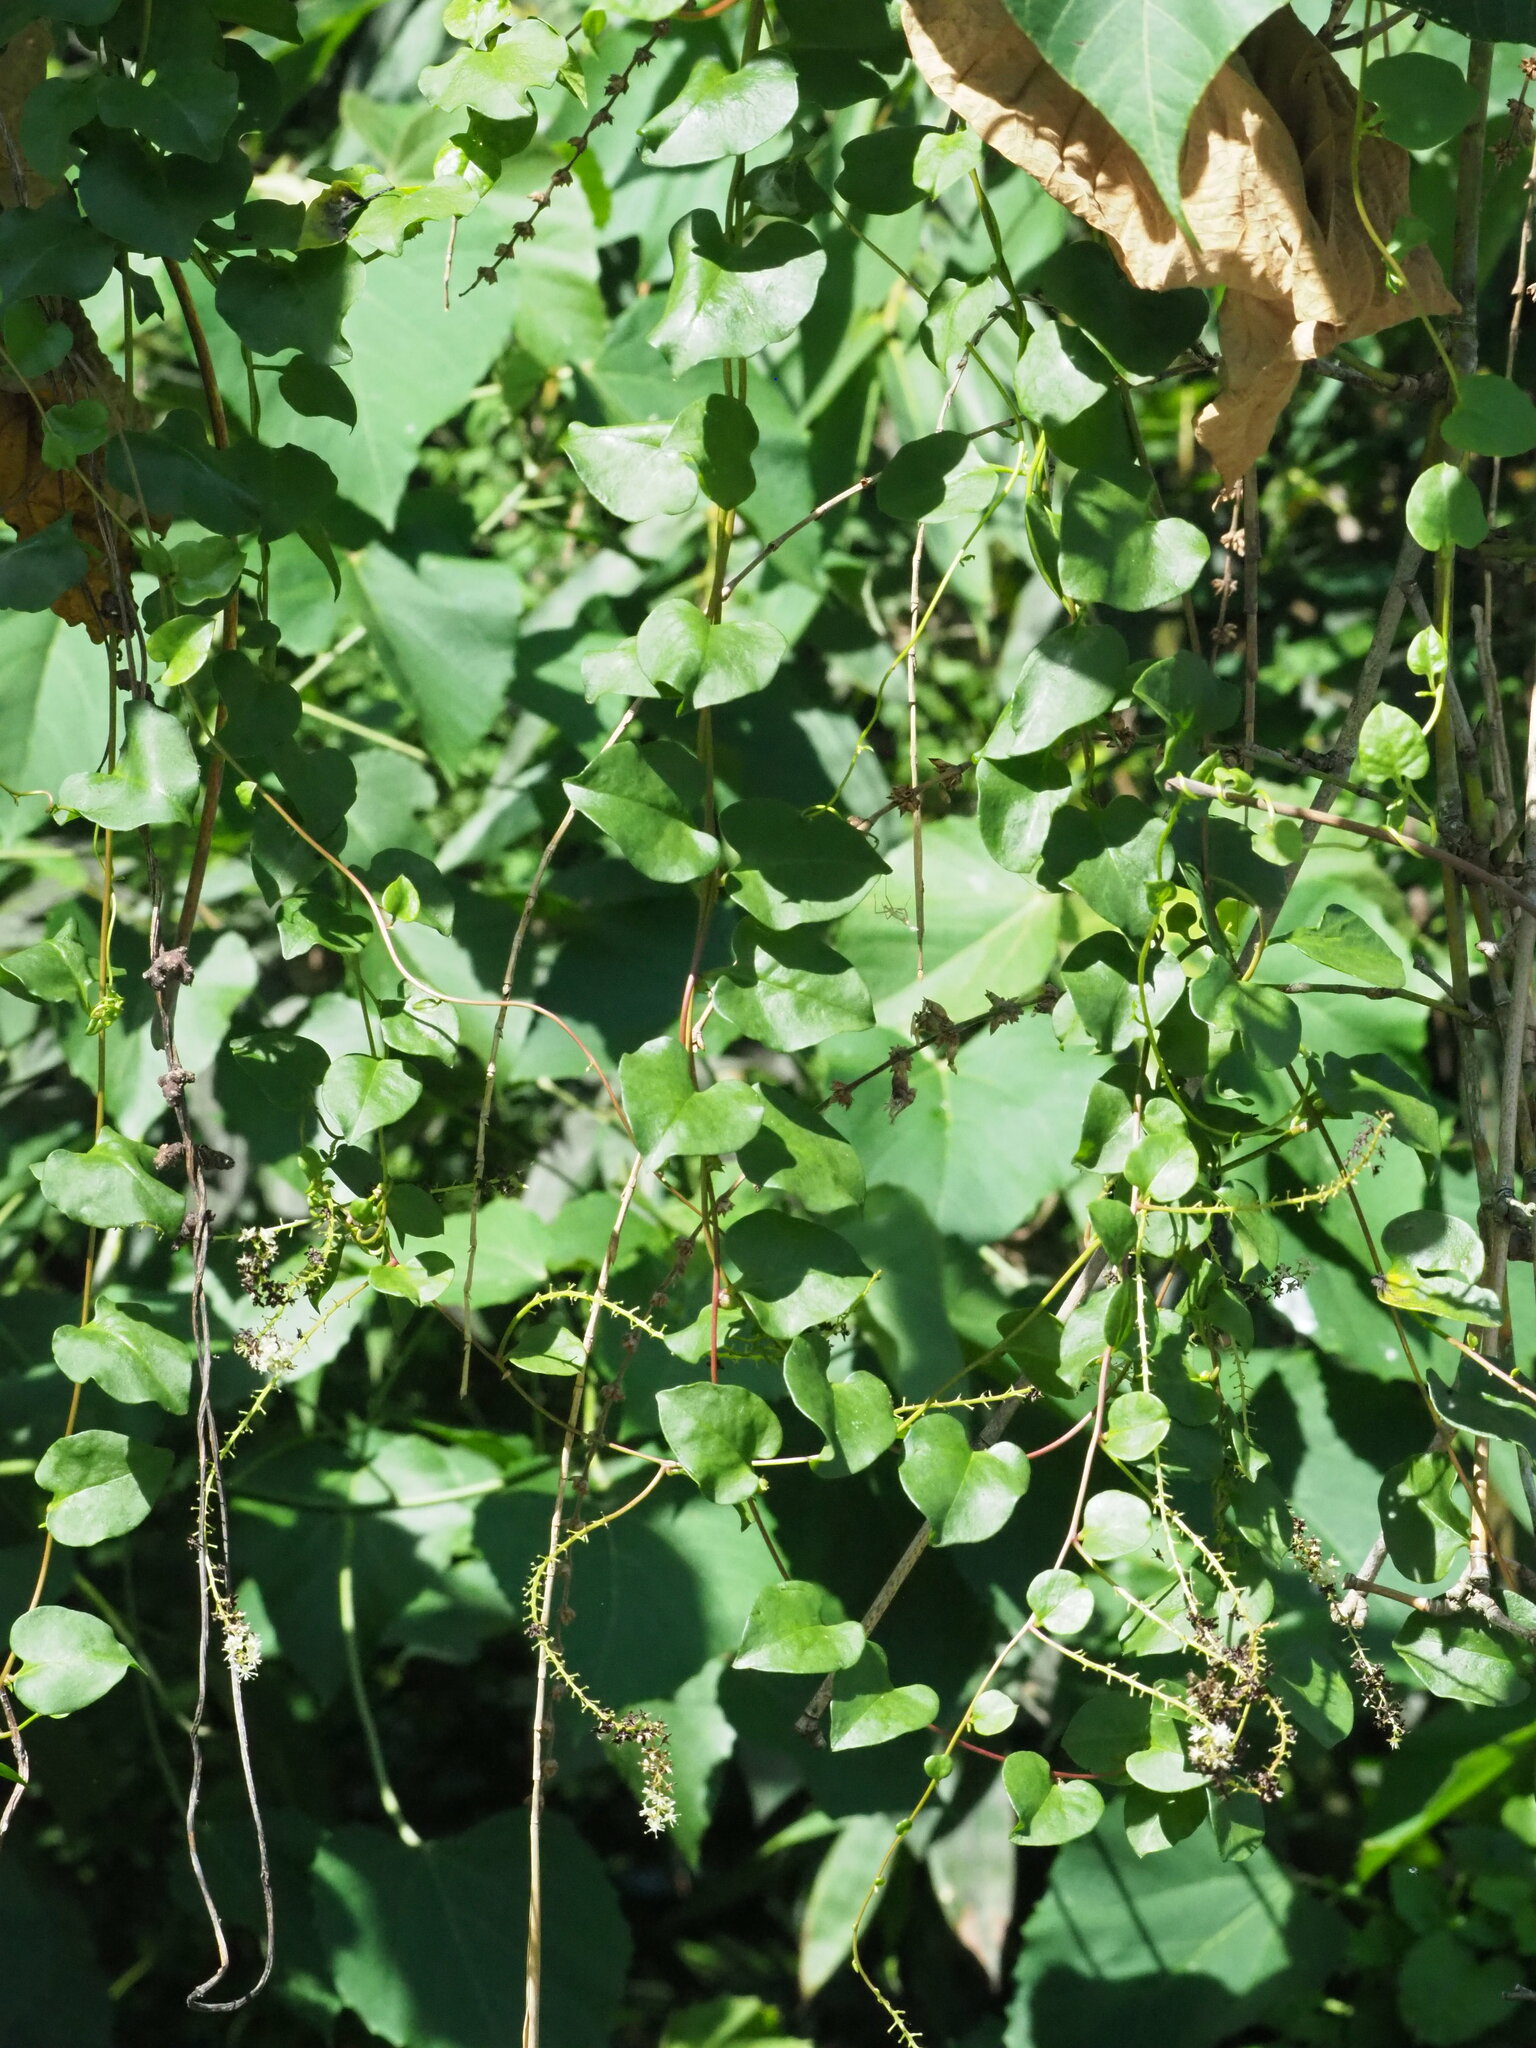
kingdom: Plantae
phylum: Tracheophyta
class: Magnoliopsida
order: Caryophyllales
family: Basellaceae
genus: Anredera
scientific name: Anredera cordifolia
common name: Heartleaf madeiravine
